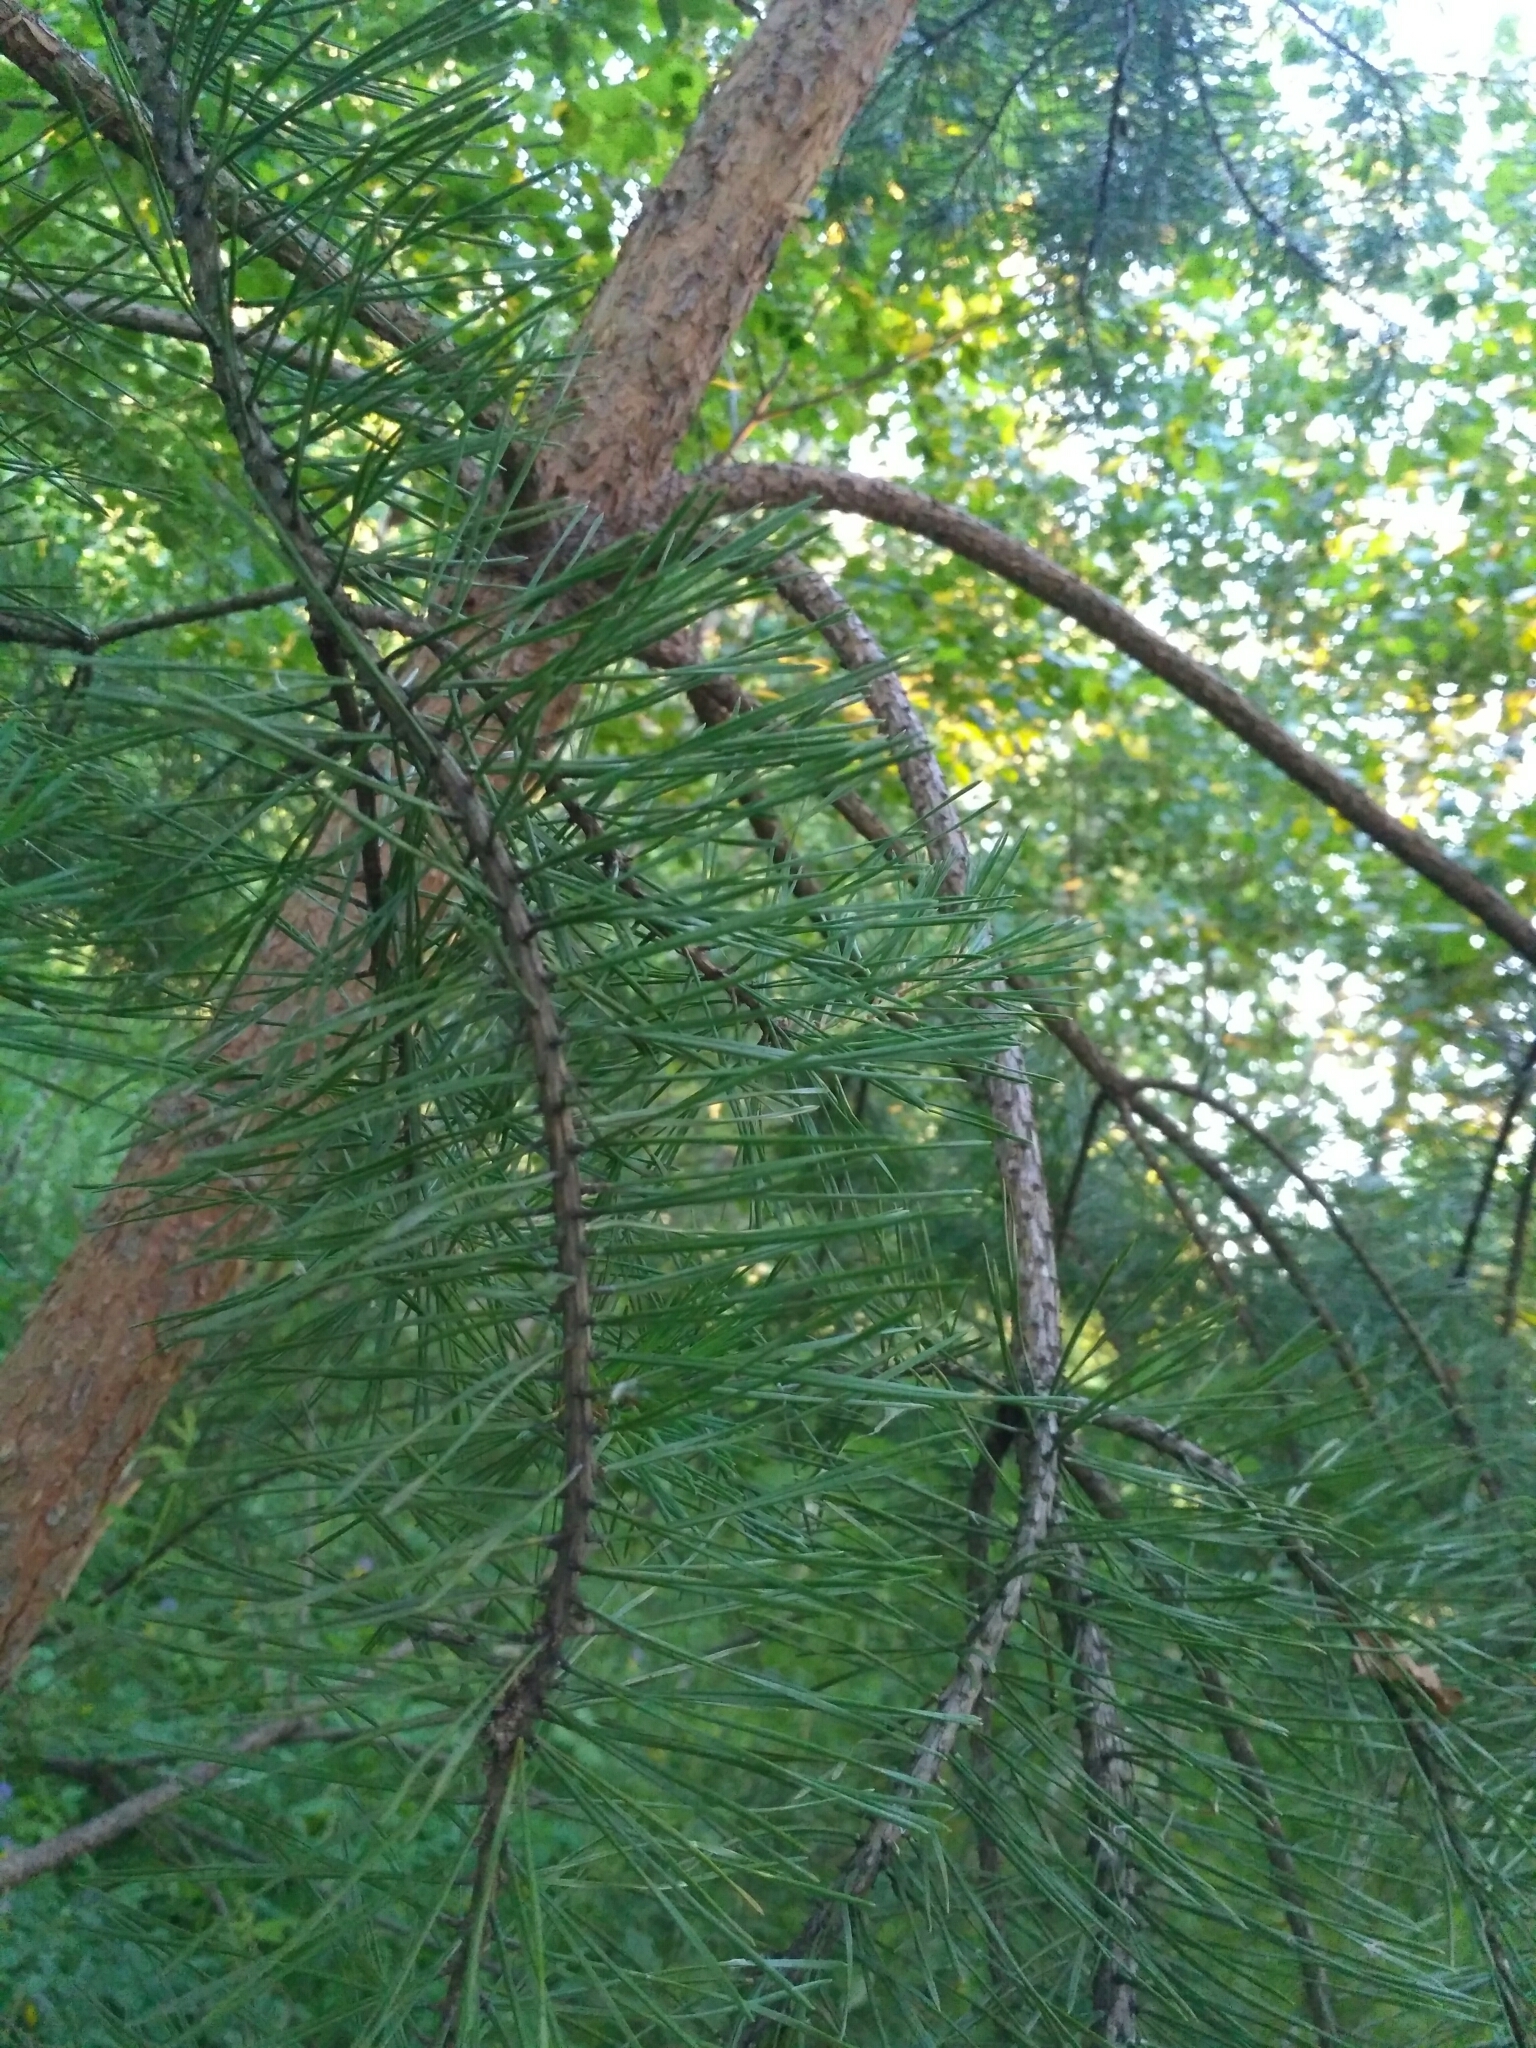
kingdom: Plantae
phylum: Tracheophyta
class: Pinopsida
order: Pinales
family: Pinaceae
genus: Pinus
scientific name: Pinus sylvestris
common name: Scots pine
